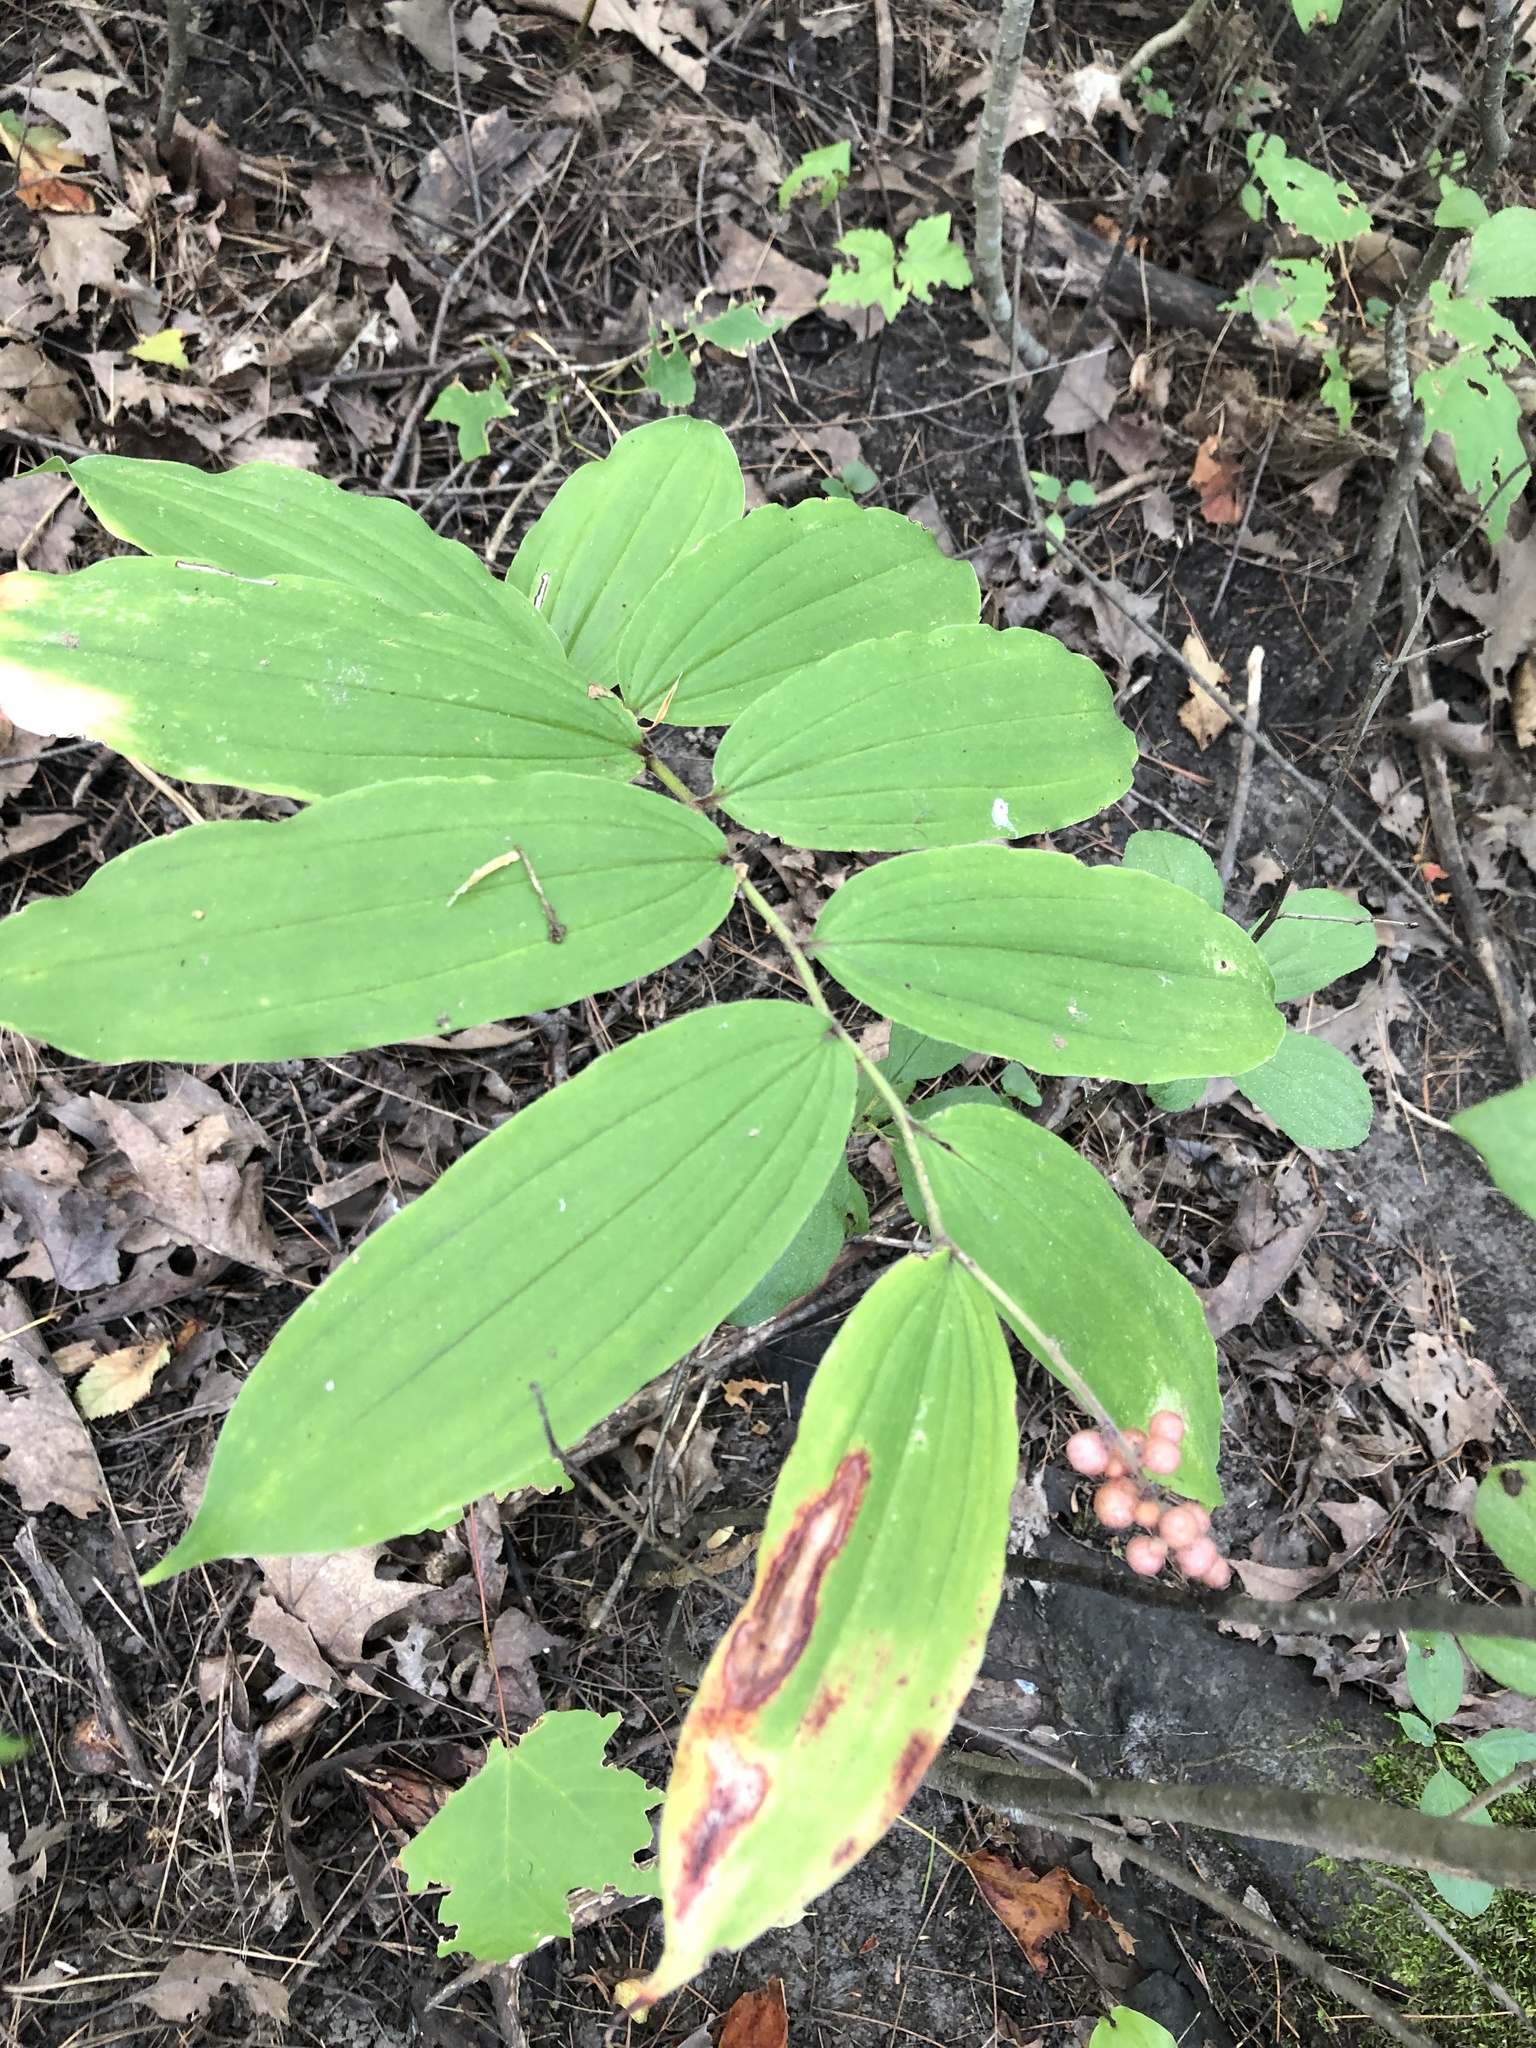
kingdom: Plantae
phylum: Tracheophyta
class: Liliopsida
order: Asparagales
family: Asparagaceae
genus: Maianthemum
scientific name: Maianthemum racemosum
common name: False spikenard
